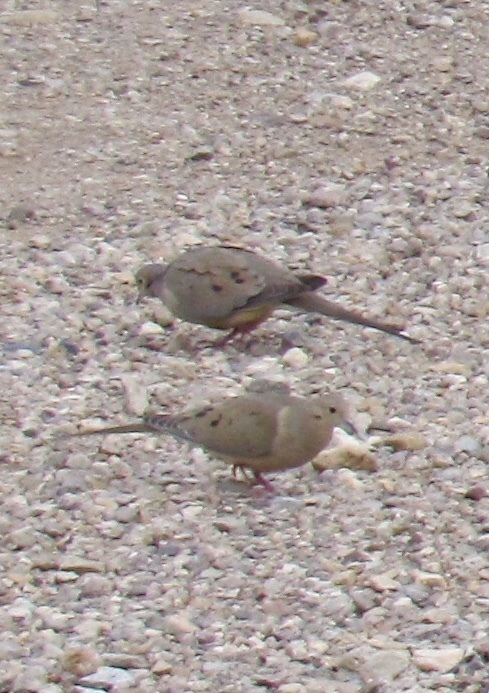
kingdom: Animalia
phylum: Chordata
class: Aves
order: Columbiformes
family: Columbidae
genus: Zenaida
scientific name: Zenaida macroura
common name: Mourning dove
